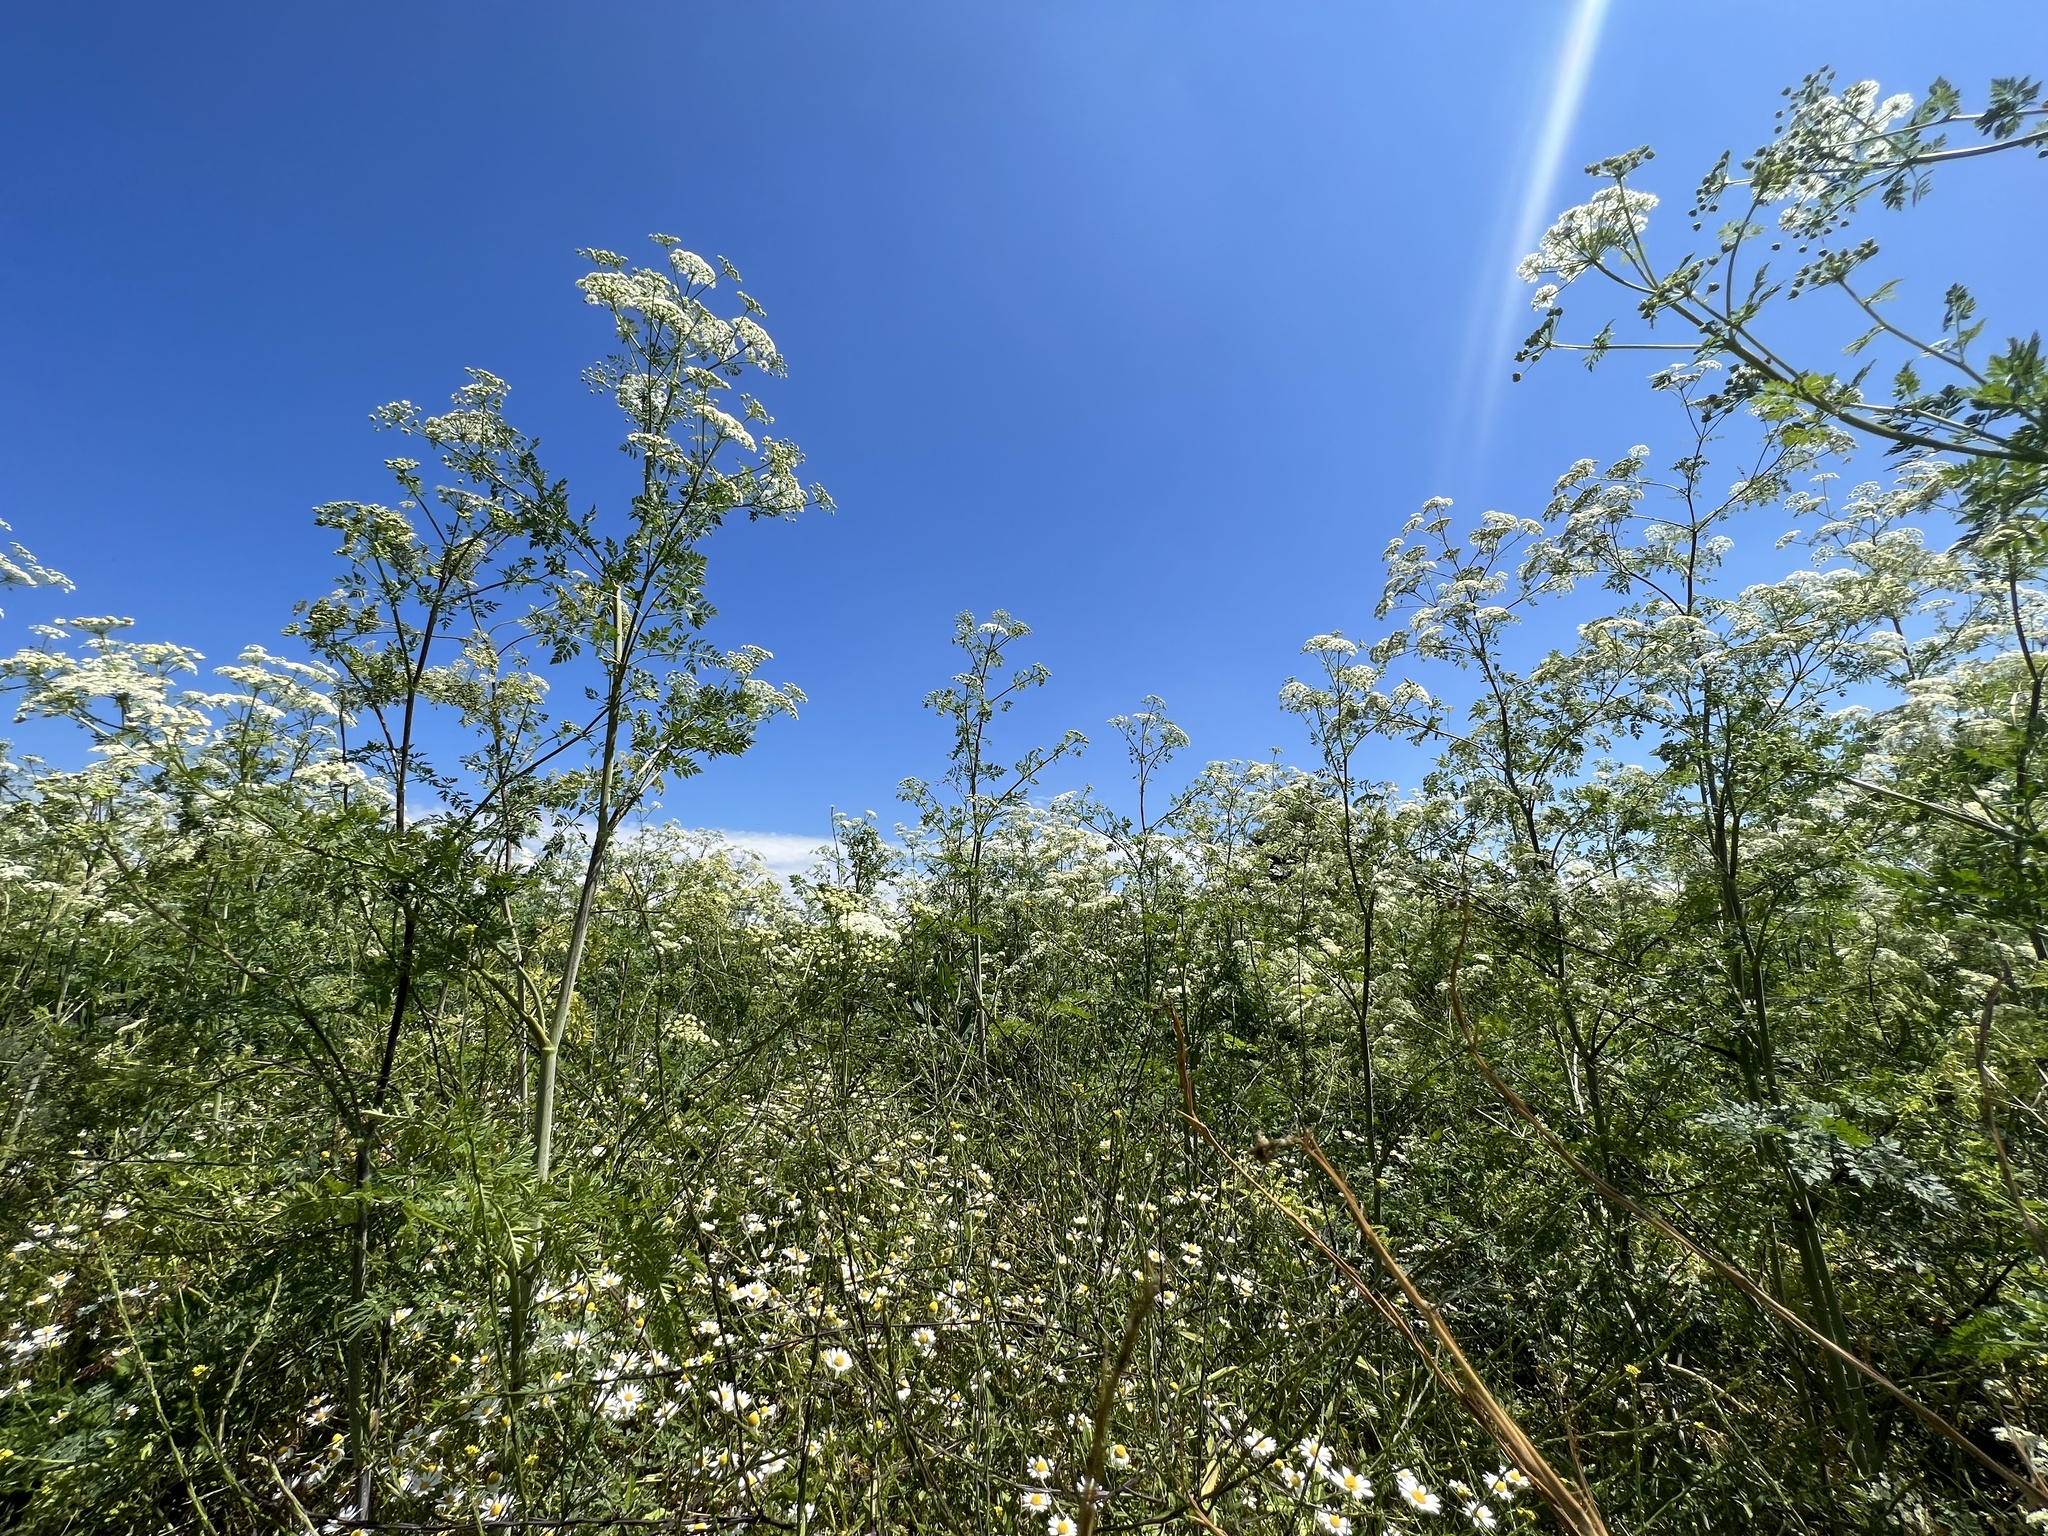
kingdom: Plantae
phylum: Tracheophyta
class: Magnoliopsida
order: Apiales
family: Apiaceae
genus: Conium
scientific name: Conium maculatum
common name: Hemlock
